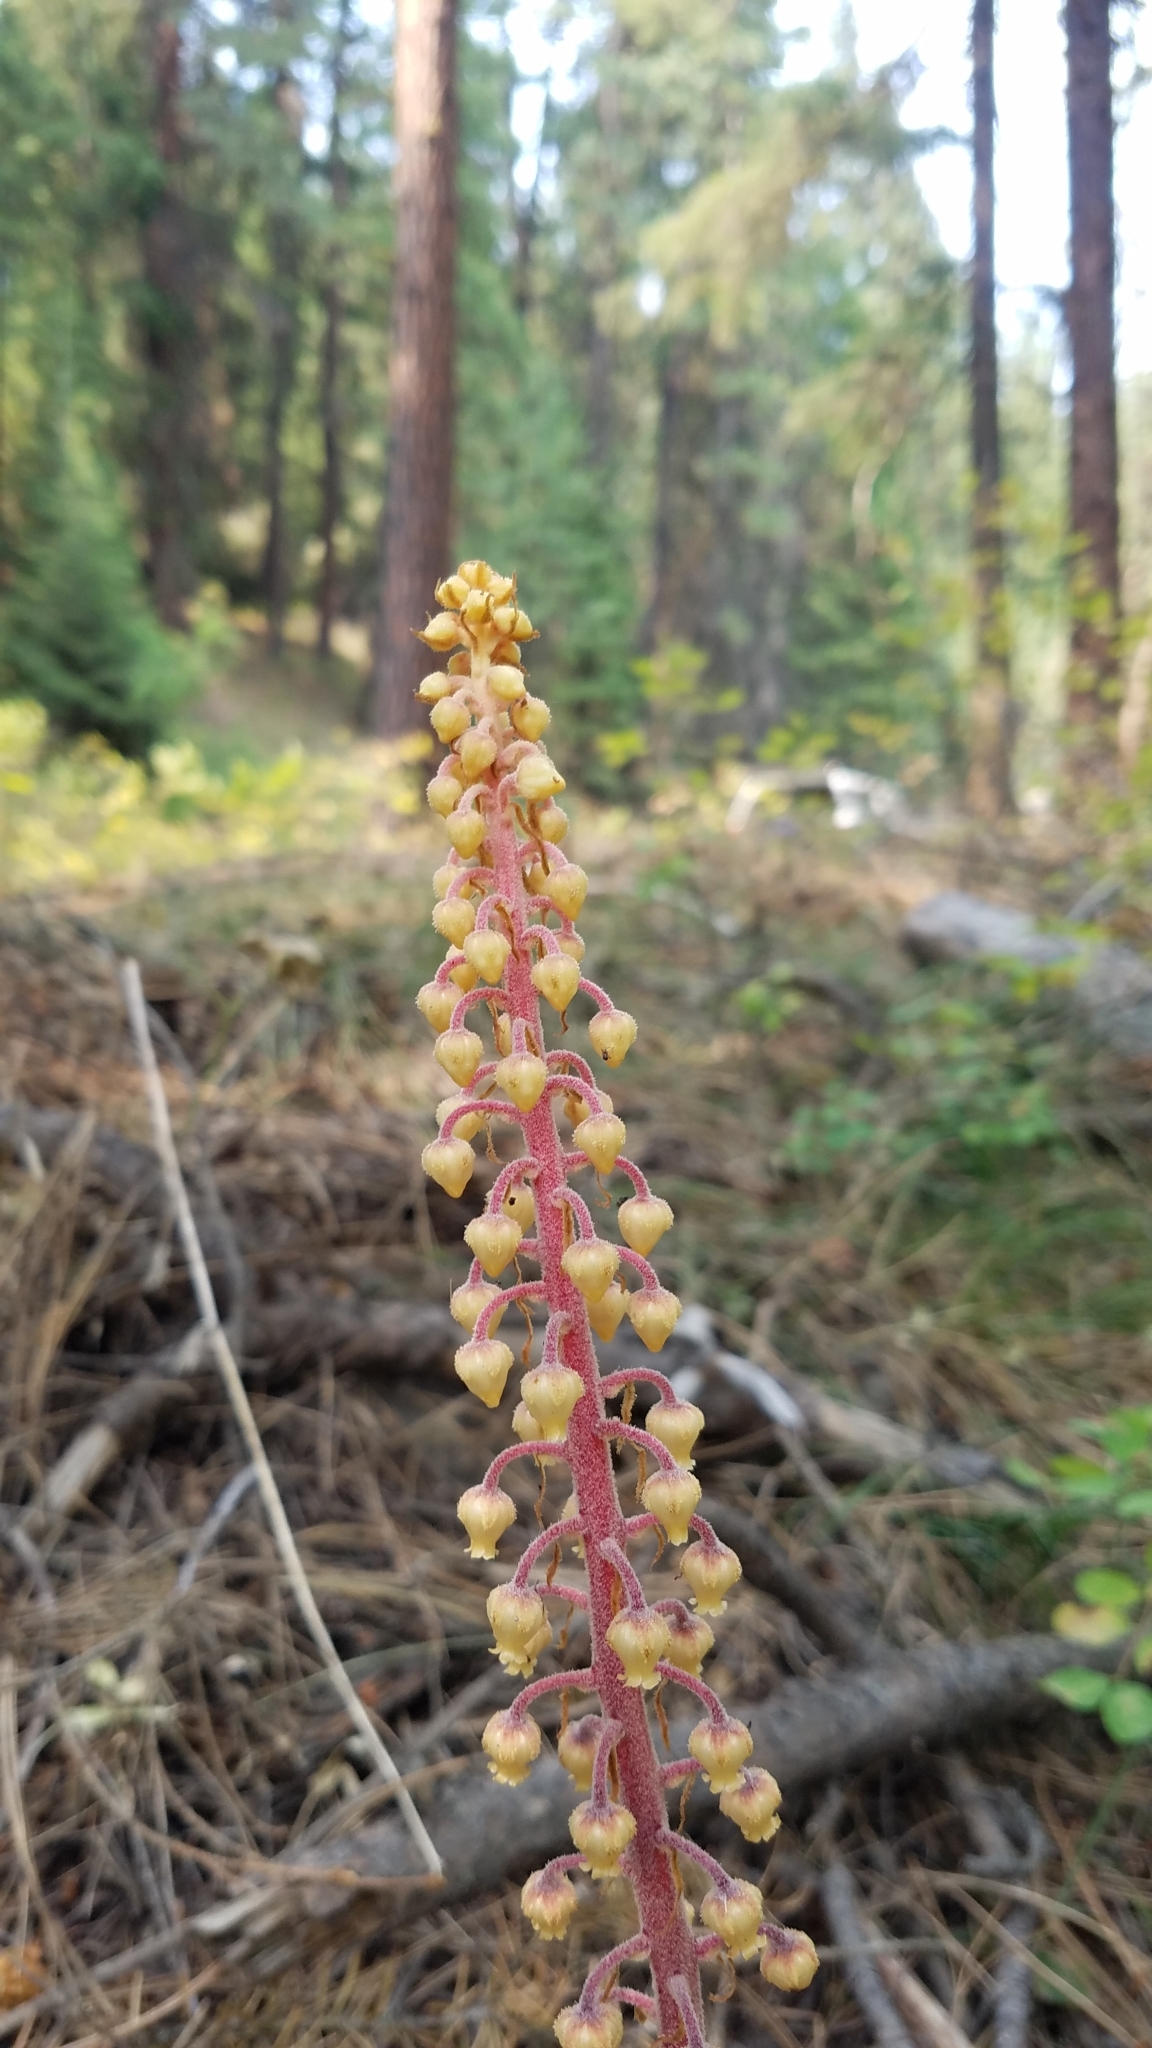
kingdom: Plantae
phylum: Tracheophyta
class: Magnoliopsida
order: Ericales
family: Ericaceae
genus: Pterospora
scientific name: Pterospora andromedea
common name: Giant bird's-nest
